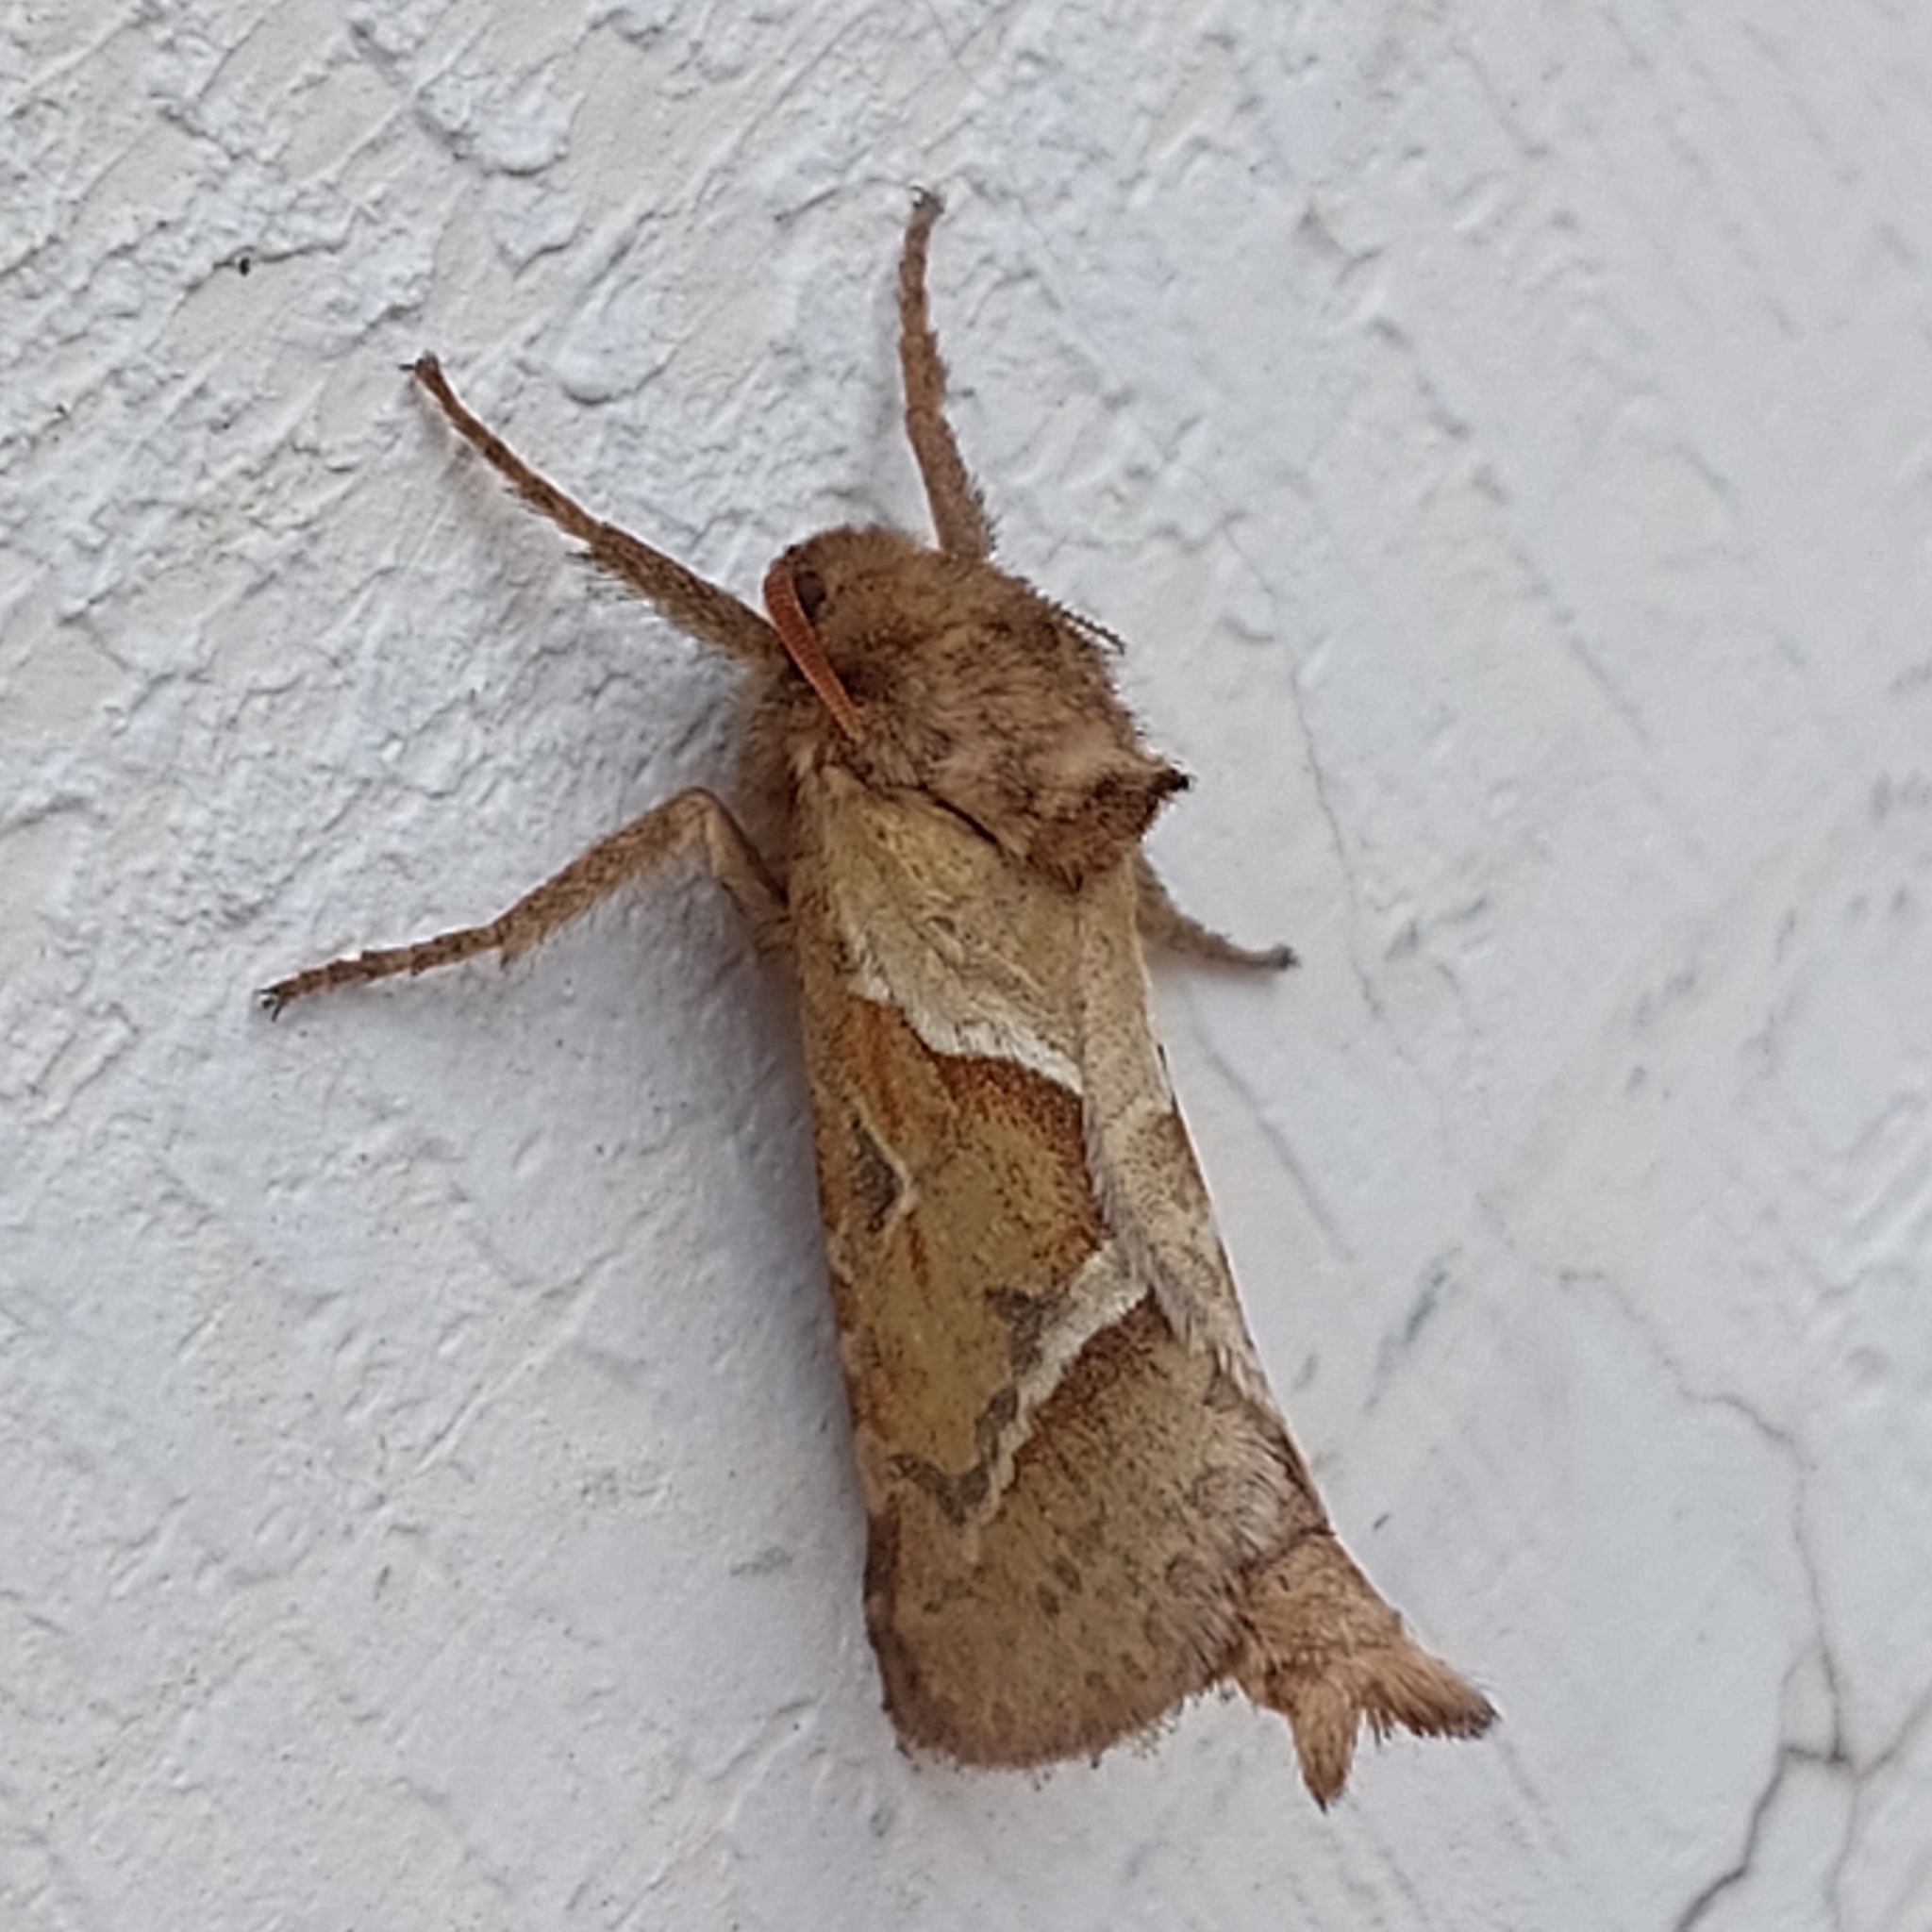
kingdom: Animalia
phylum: Arthropoda
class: Insecta
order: Lepidoptera
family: Hepialidae
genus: Triodia
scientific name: Triodia sylvina
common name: Orange swift
